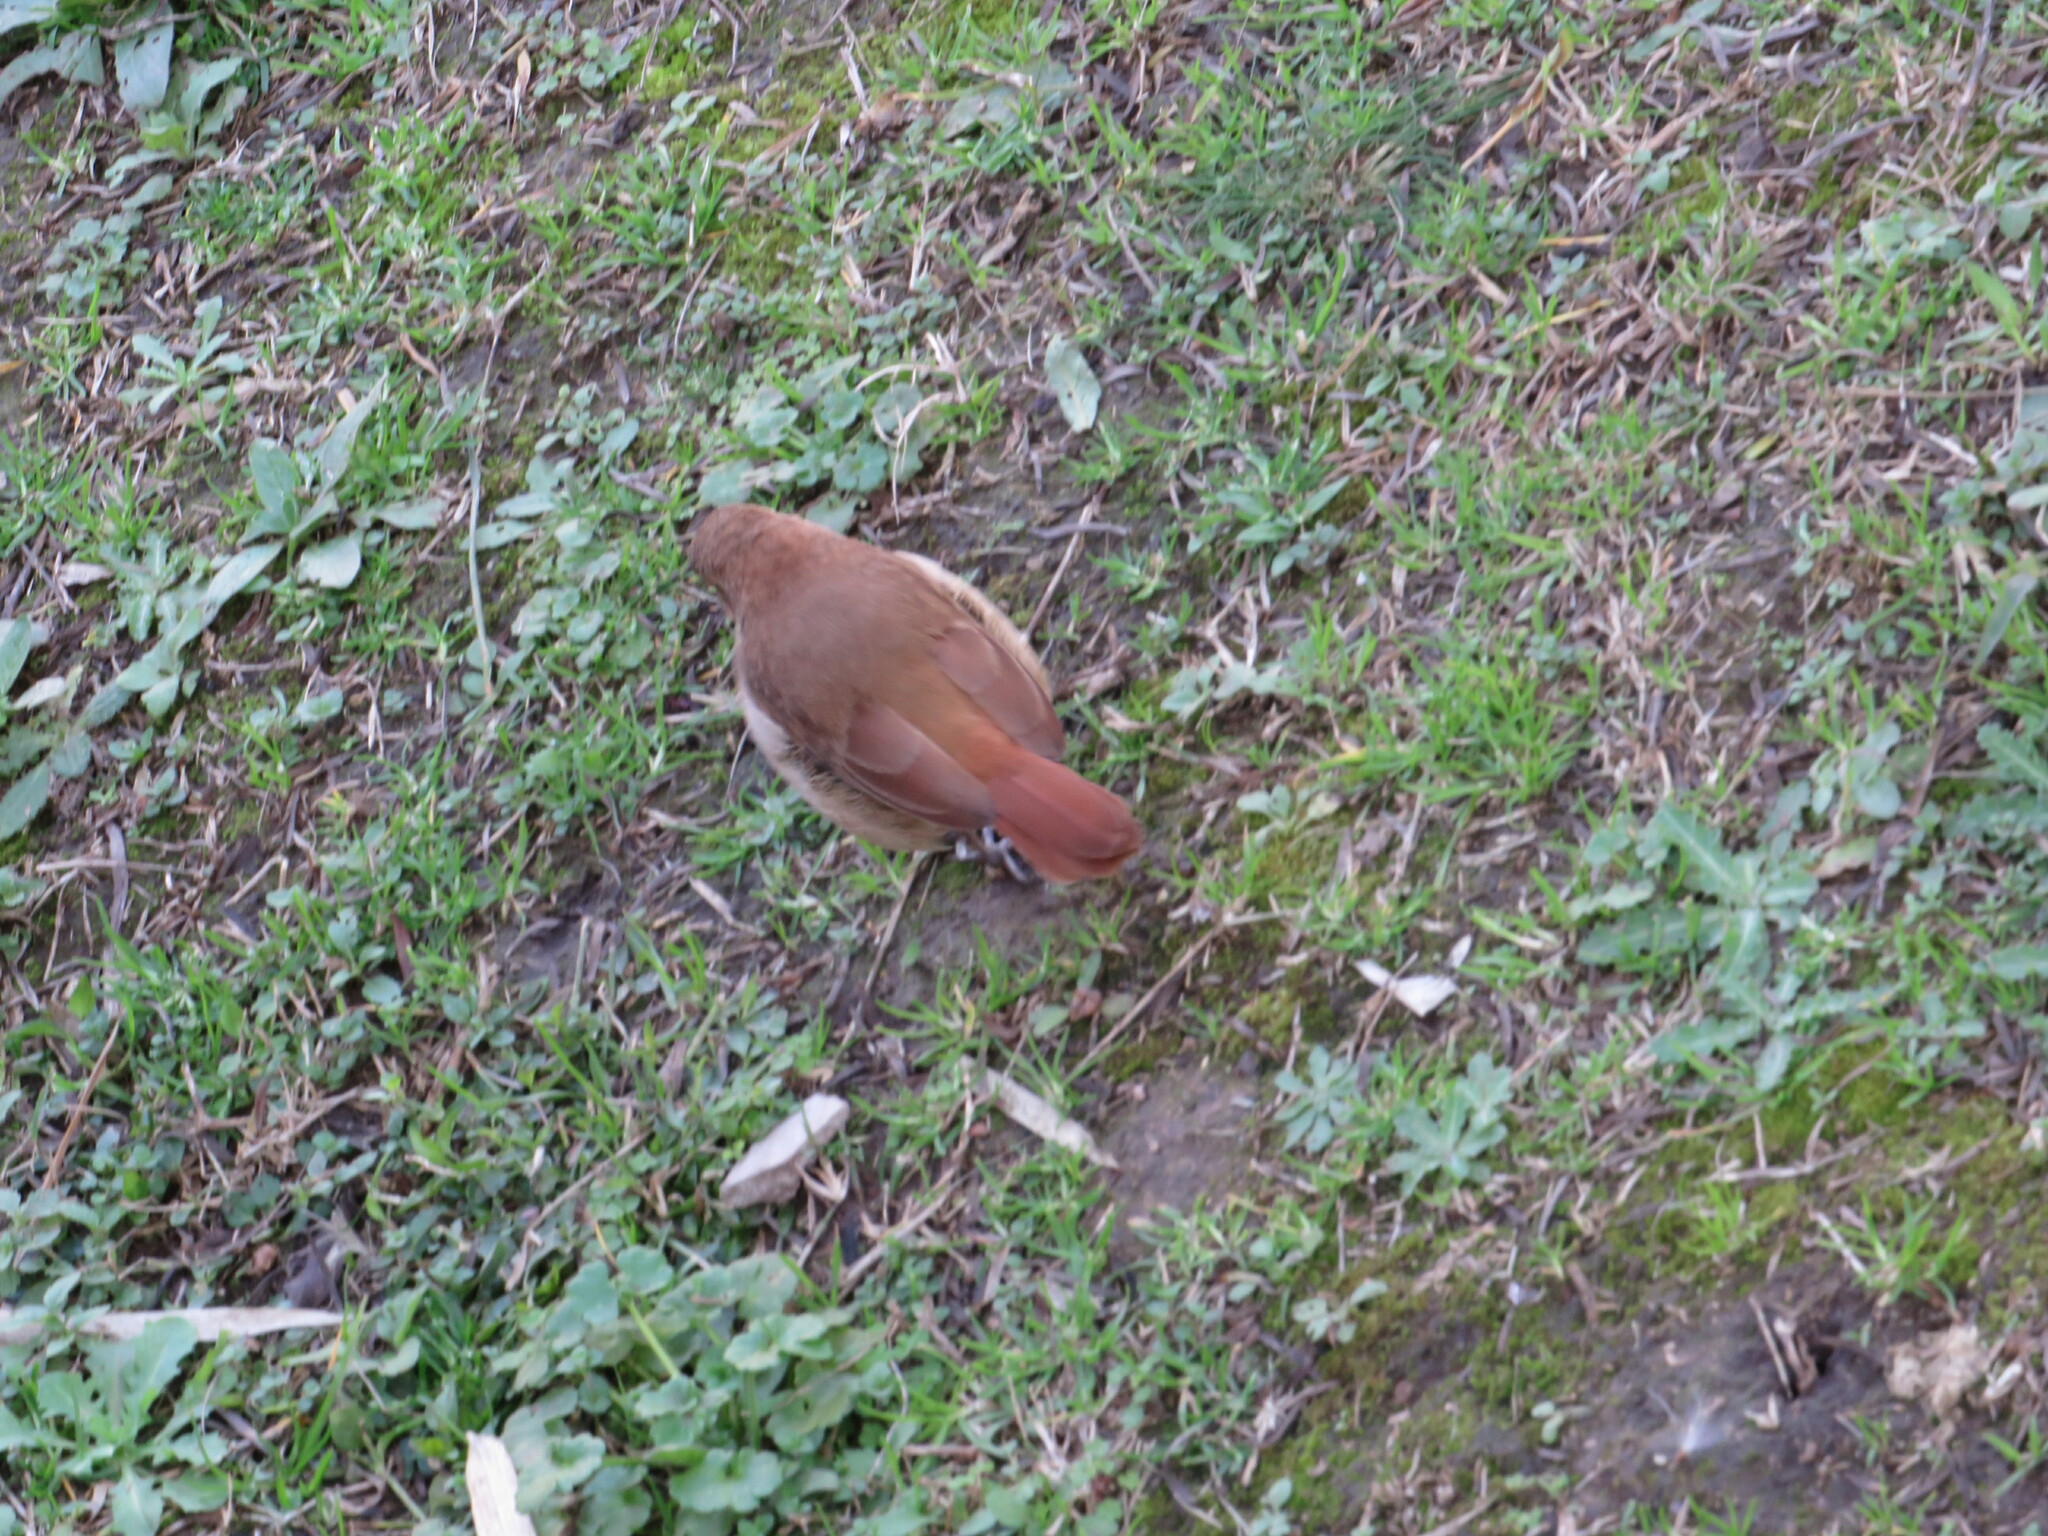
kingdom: Animalia
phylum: Chordata
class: Aves
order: Passeriformes
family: Furnariidae
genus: Furnarius
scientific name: Furnarius rufus
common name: Rufous hornero
